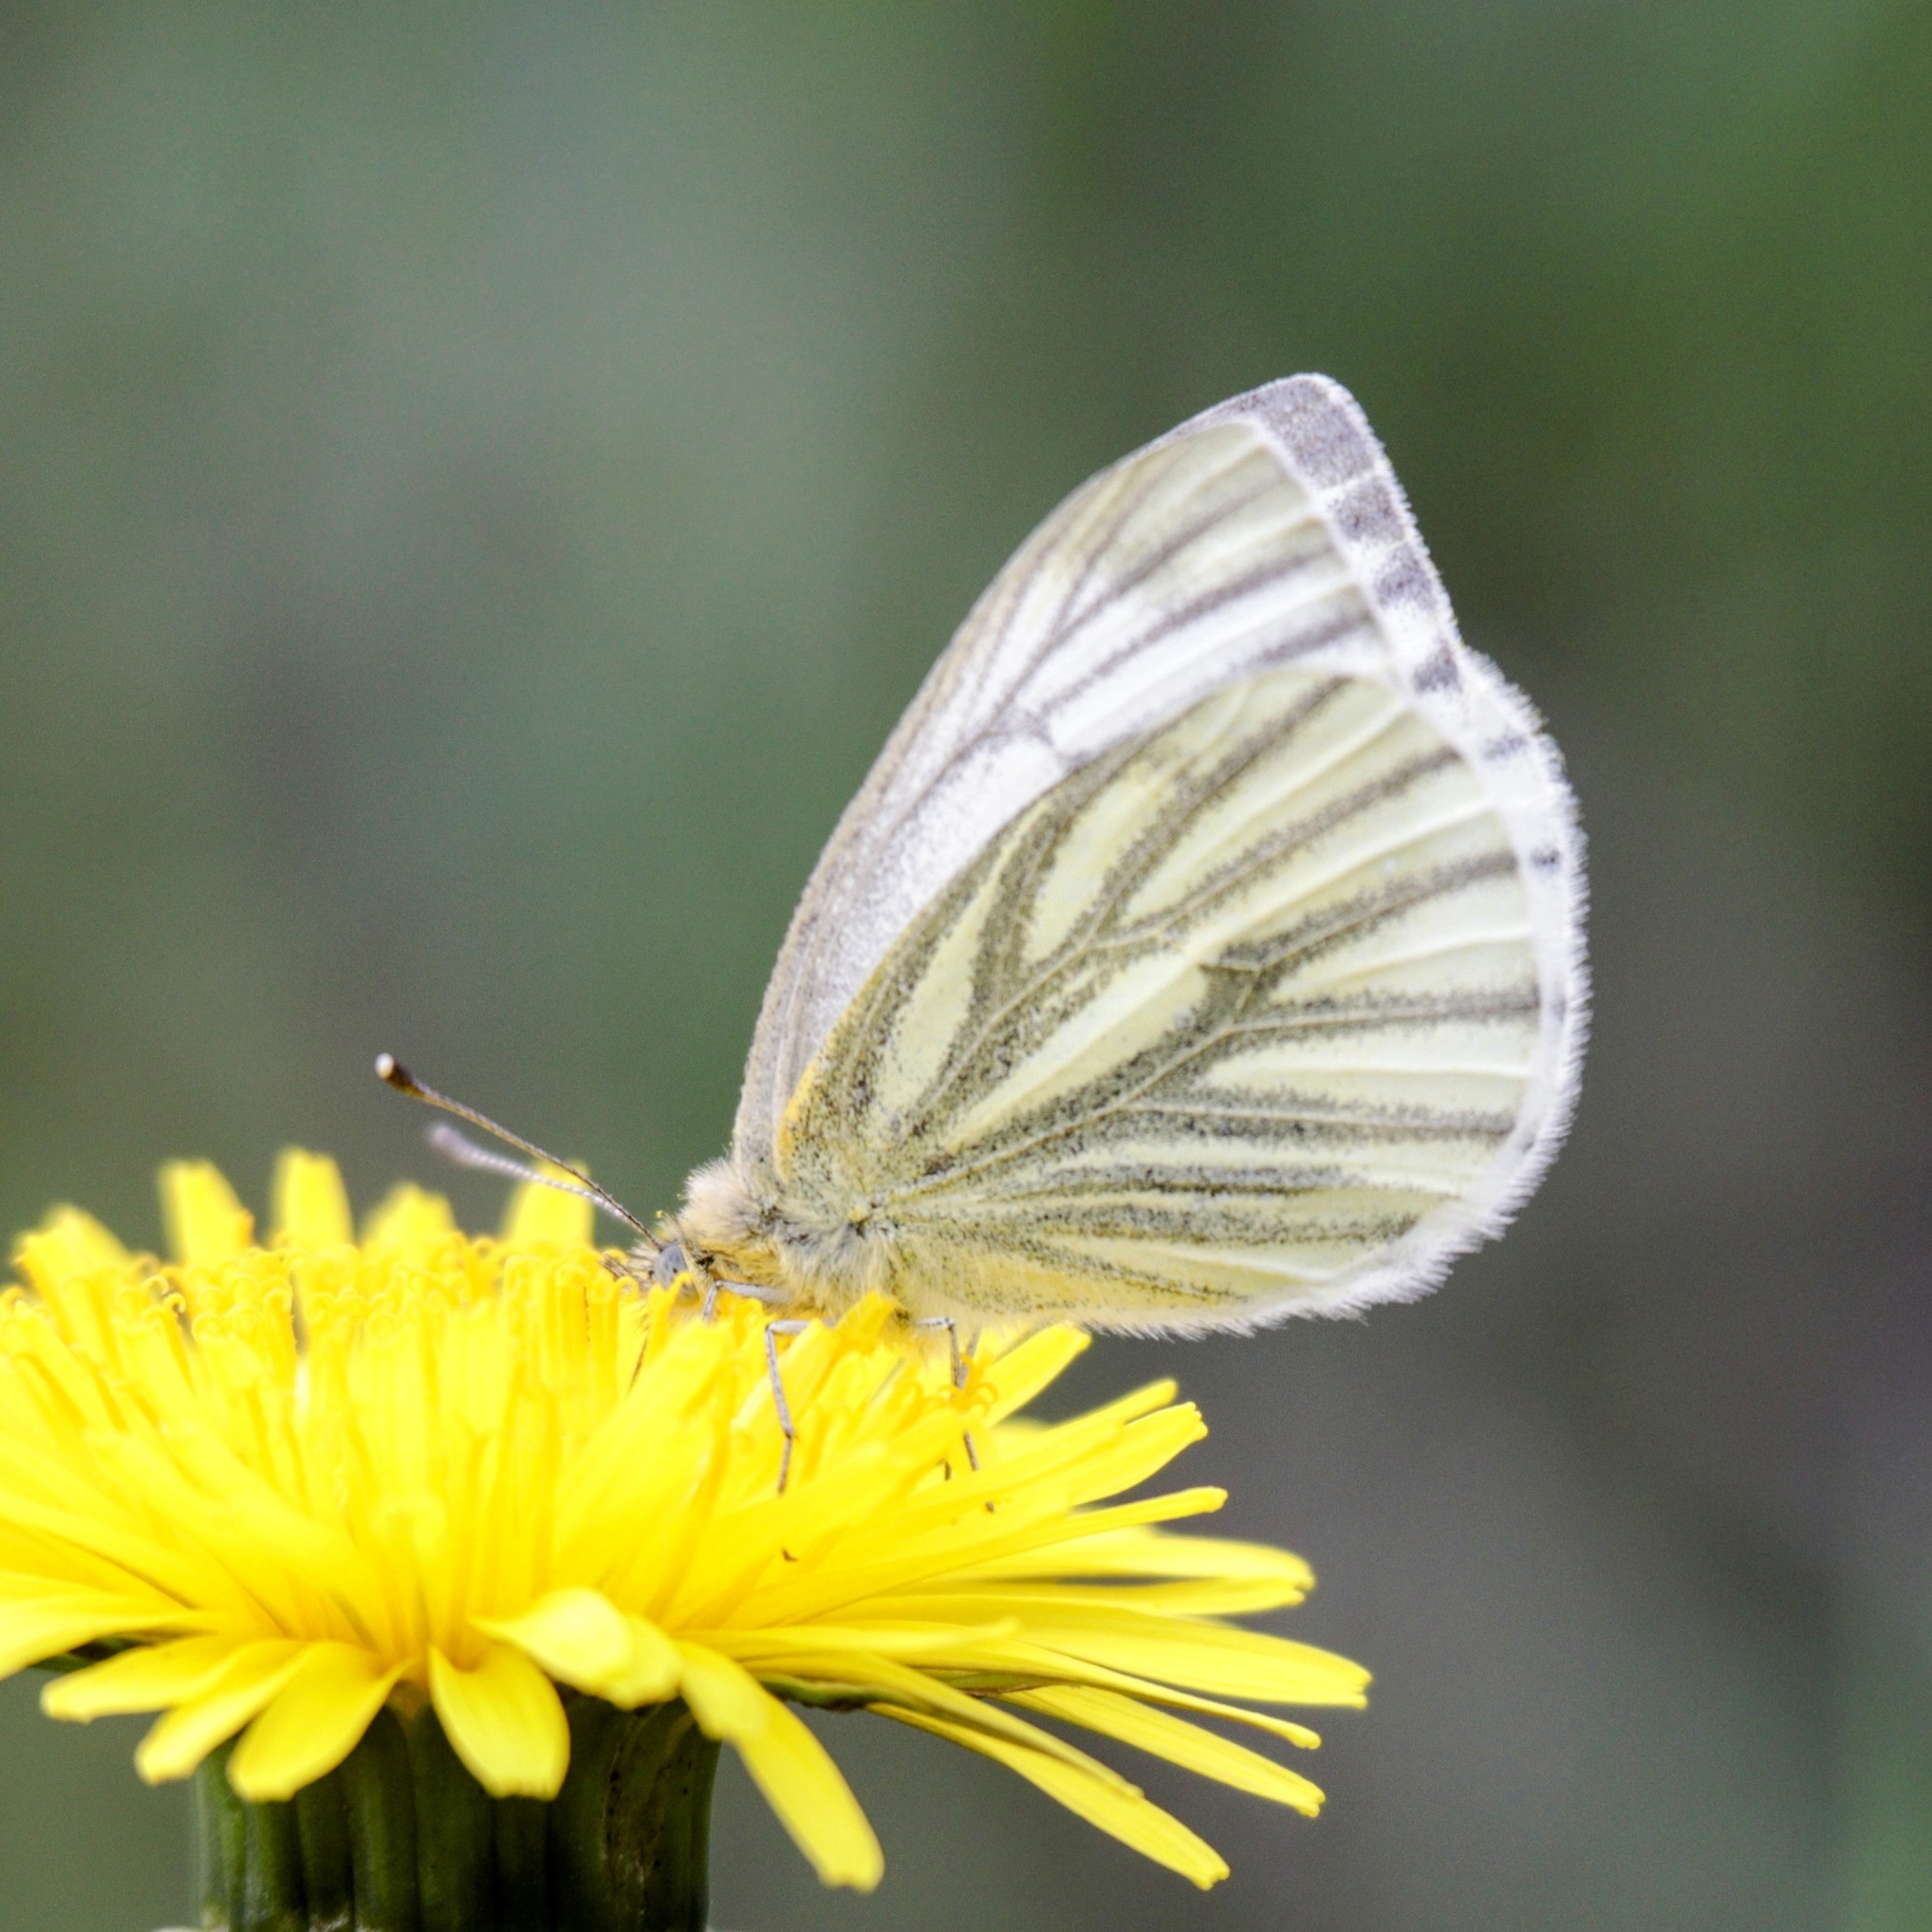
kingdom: Animalia
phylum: Arthropoda
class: Insecta
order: Lepidoptera
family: Pieridae
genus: Pieris
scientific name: Pieris napi
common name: Green-veined white
